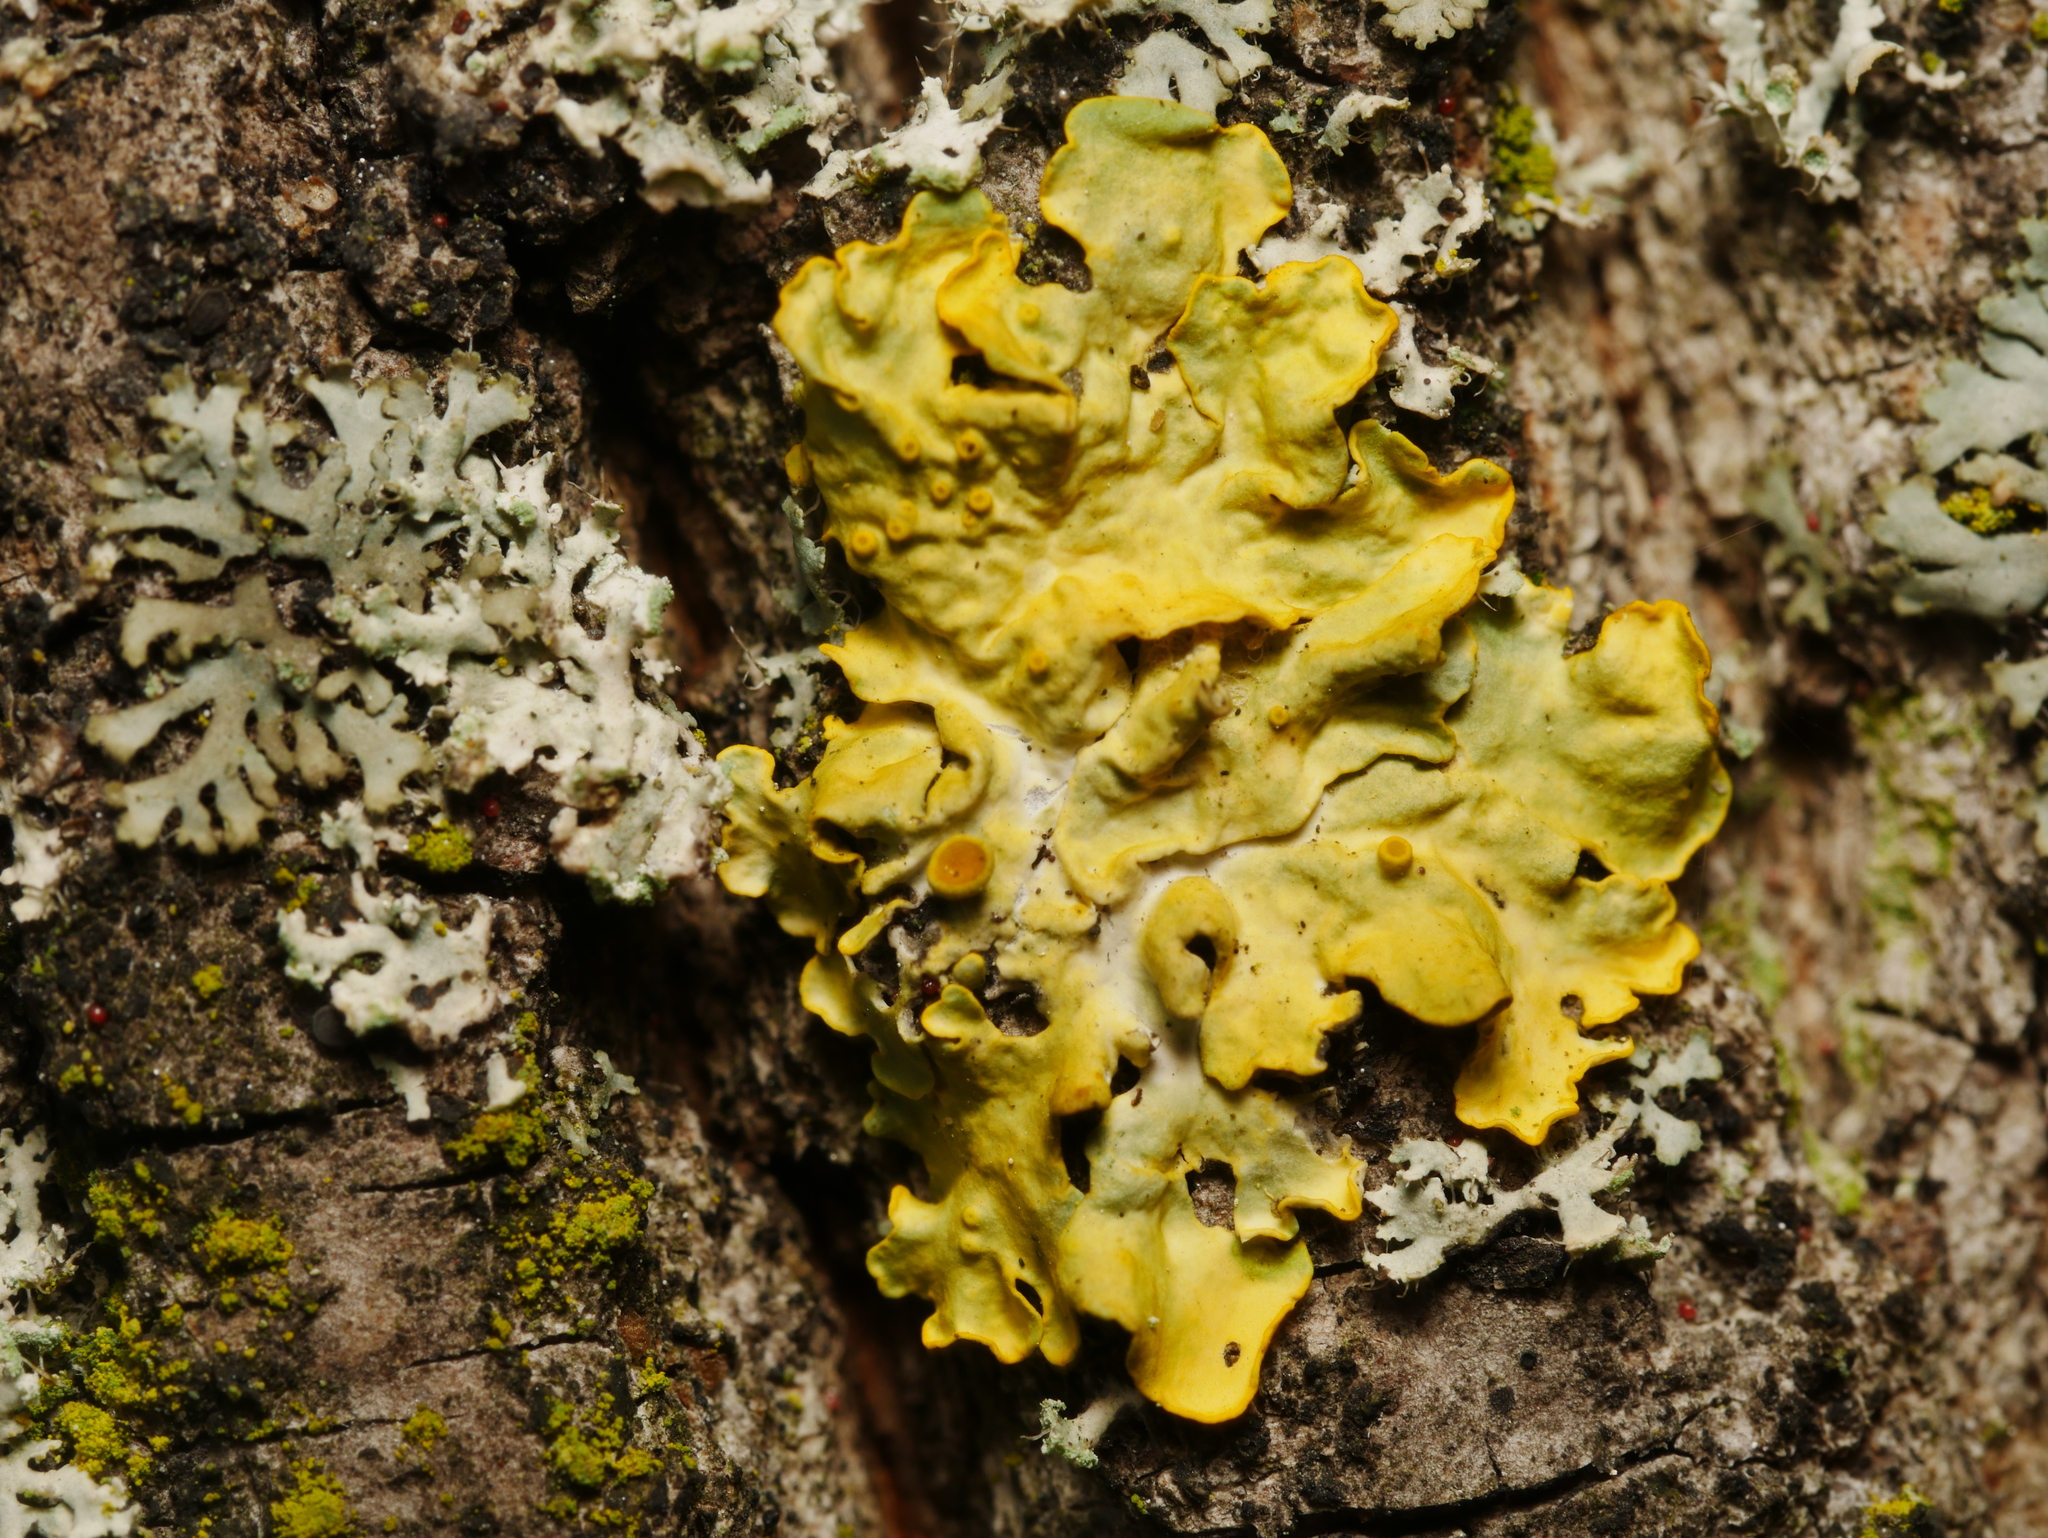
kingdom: Fungi
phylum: Ascomycota
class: Lecanoromycetes
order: Teloschistales
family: Teloschistaceae
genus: Xanthoria
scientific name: Xanthoria parietina
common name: Common orange lichen
